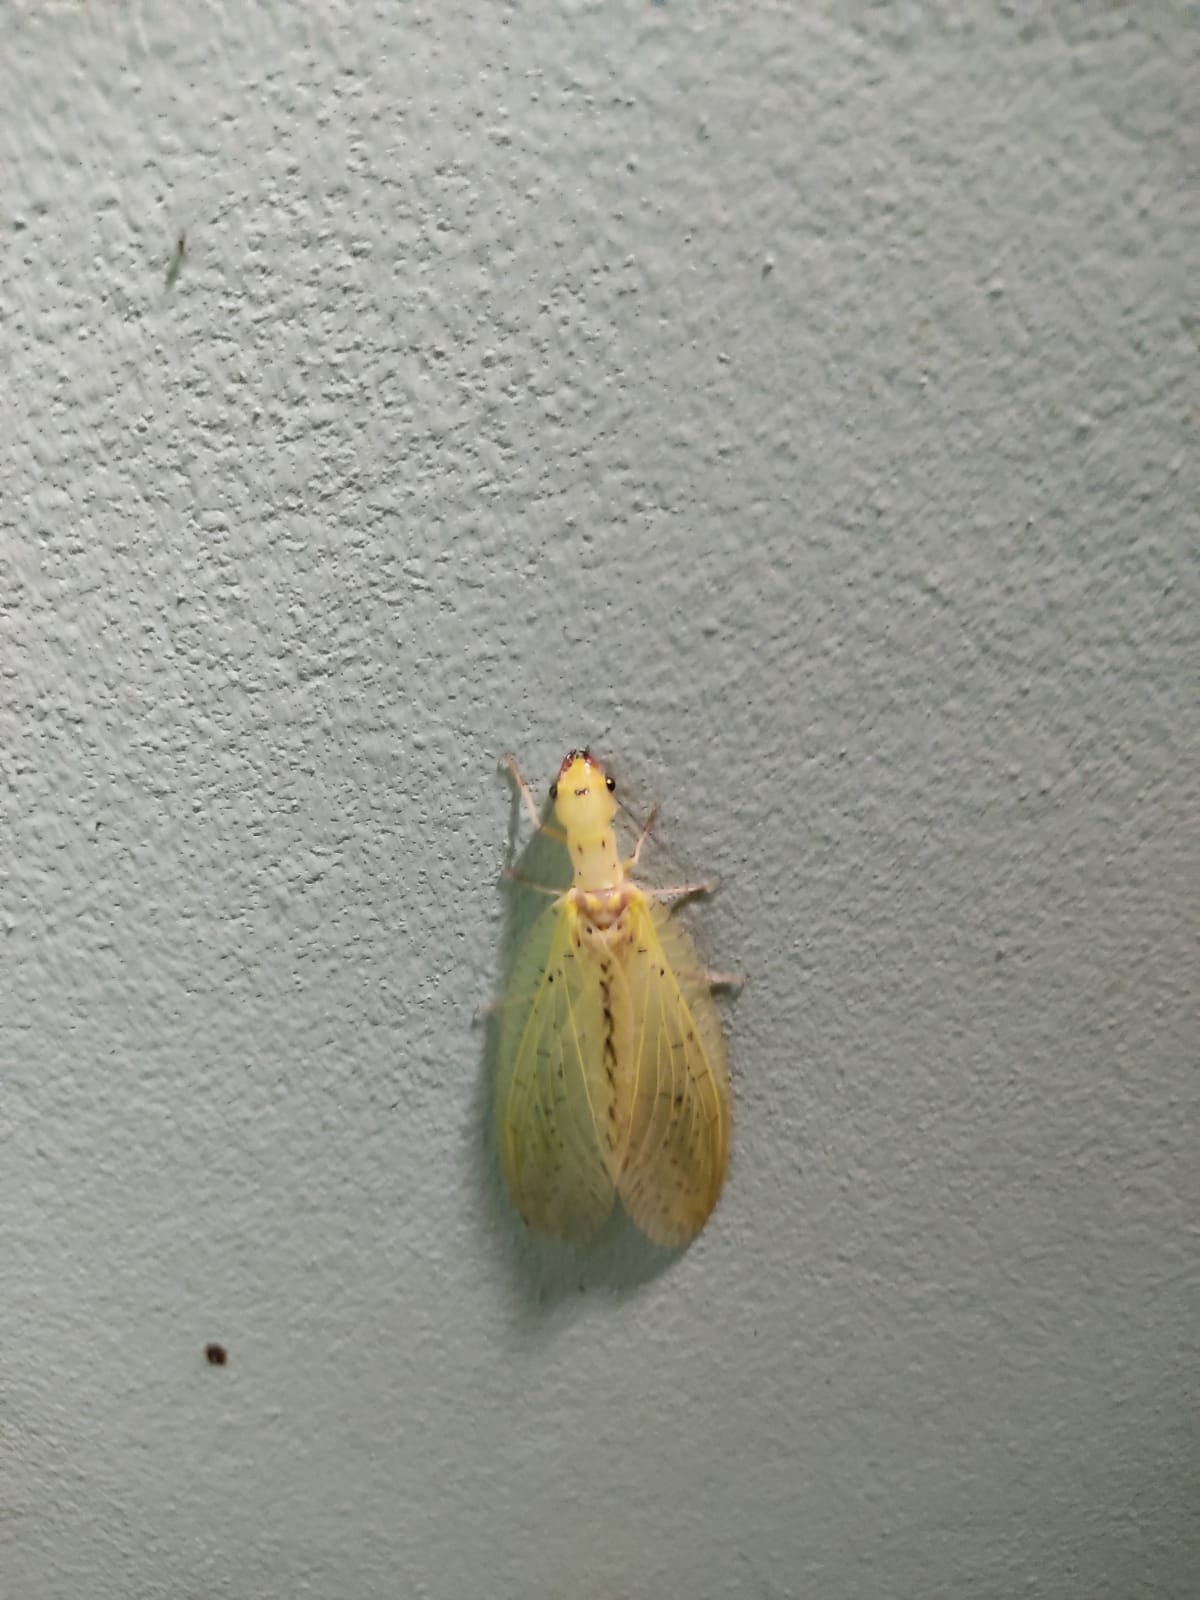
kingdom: Animalia
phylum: Arthropoda
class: Insecta
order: Megaloptera
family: Corydalidae
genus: Chloronia
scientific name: Chloronia corripiens
